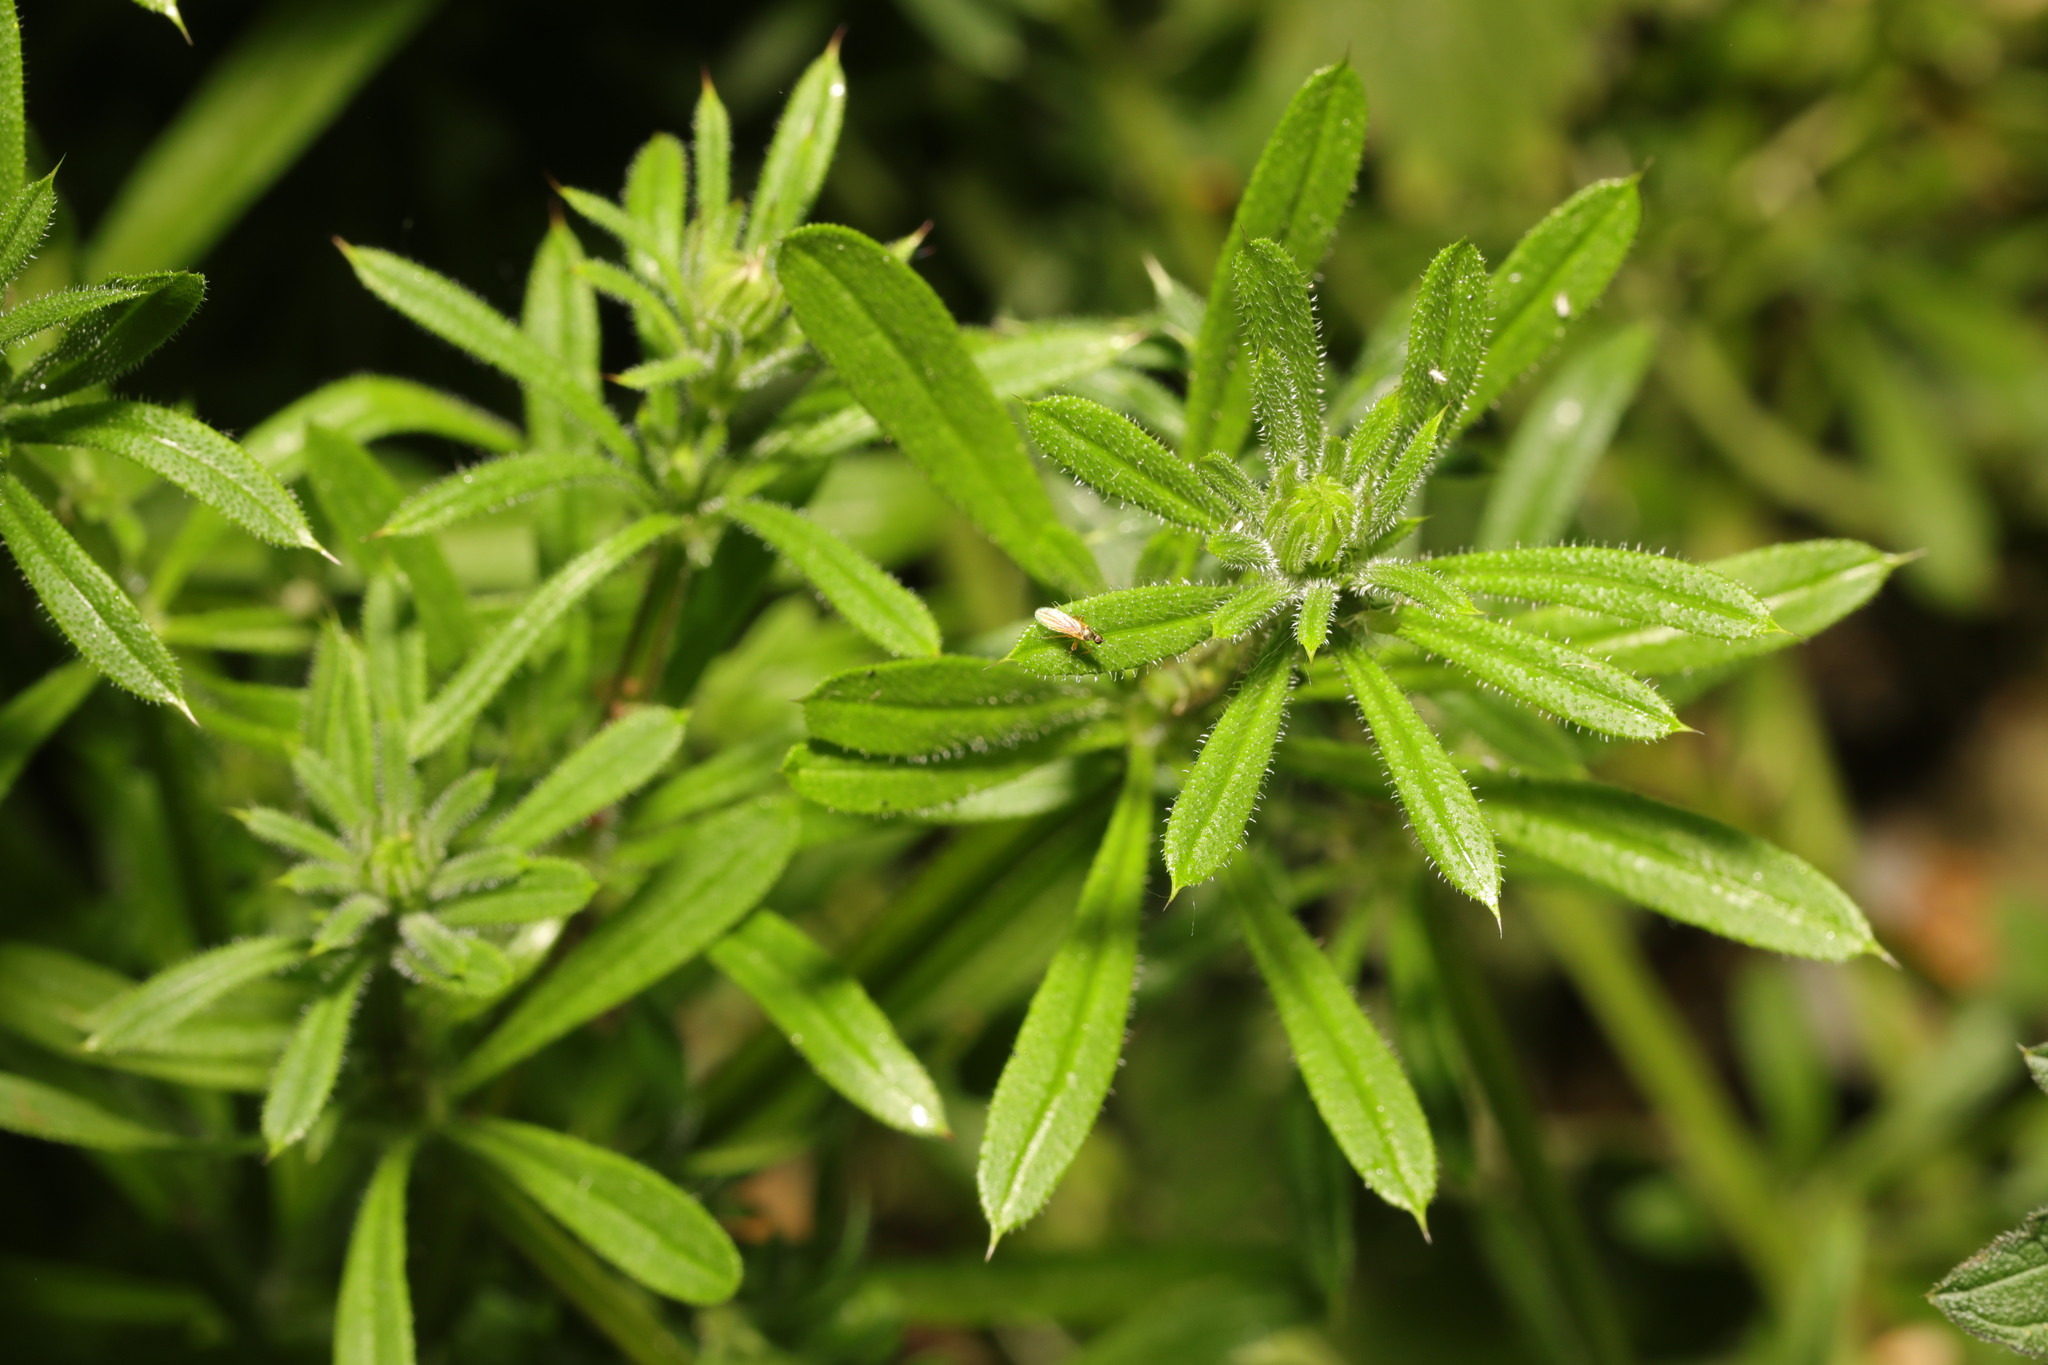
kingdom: Plantae
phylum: Tracheophyta
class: Magnoliopsida
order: Gentianales
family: Rubiaceae
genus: Galium
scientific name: Galium aparine
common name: Cleavers
